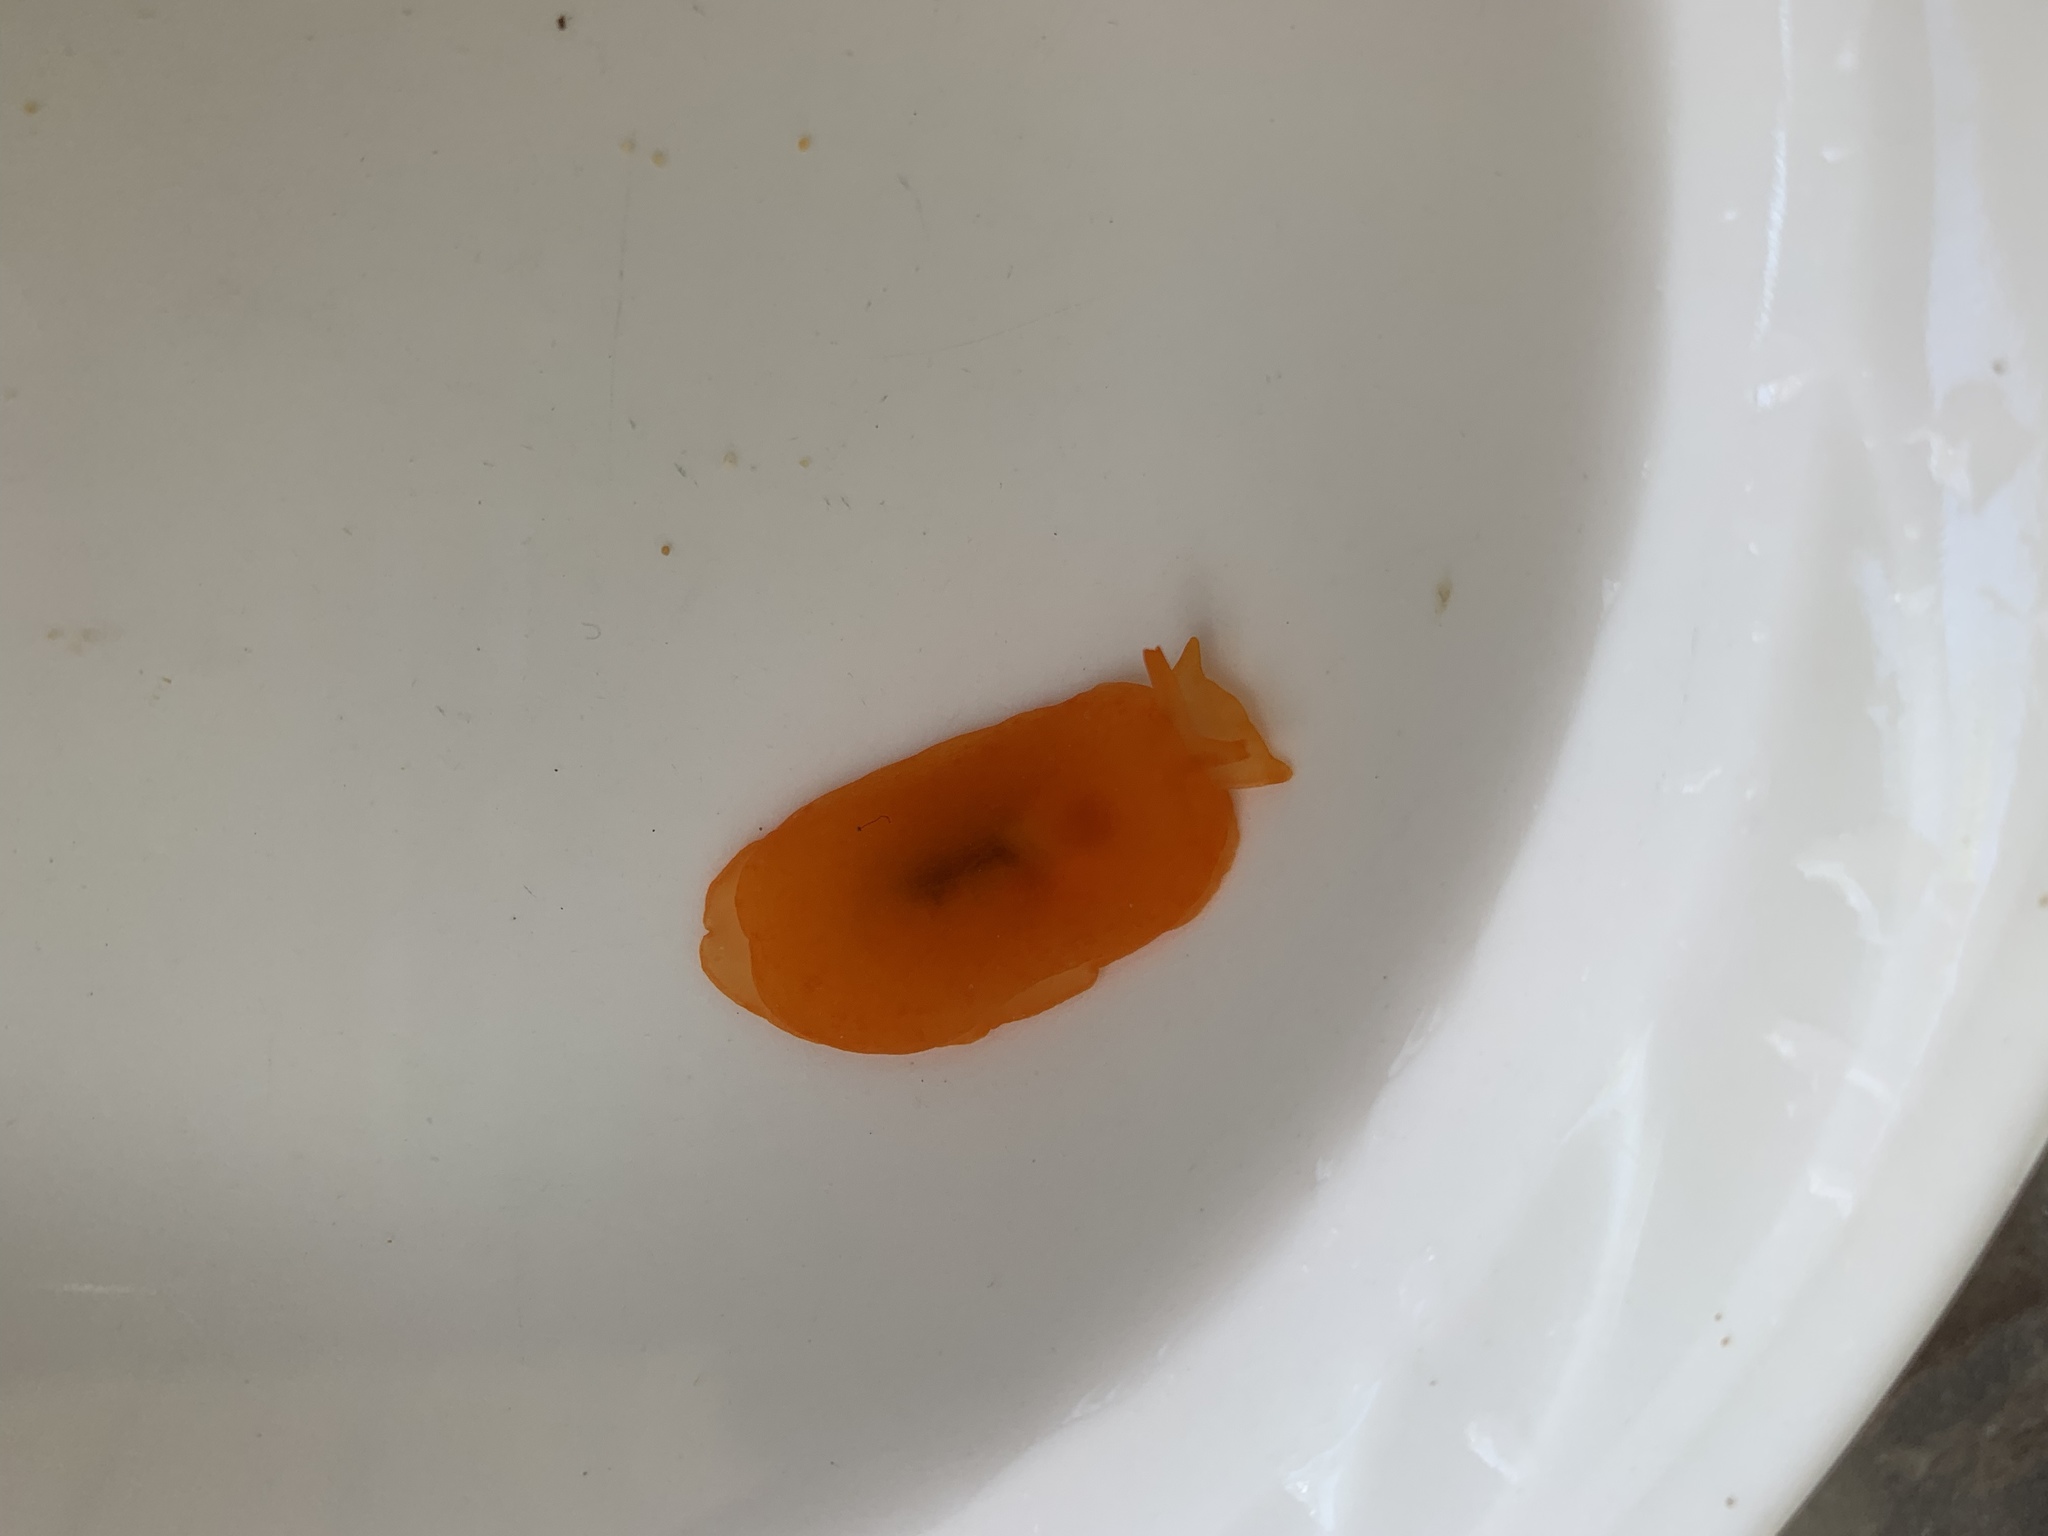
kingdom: Animalia
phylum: Mollusca
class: Gastropoda
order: Pleurobranchida
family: Pleurobranchidae
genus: Berthellina
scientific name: Berthellina delicata
